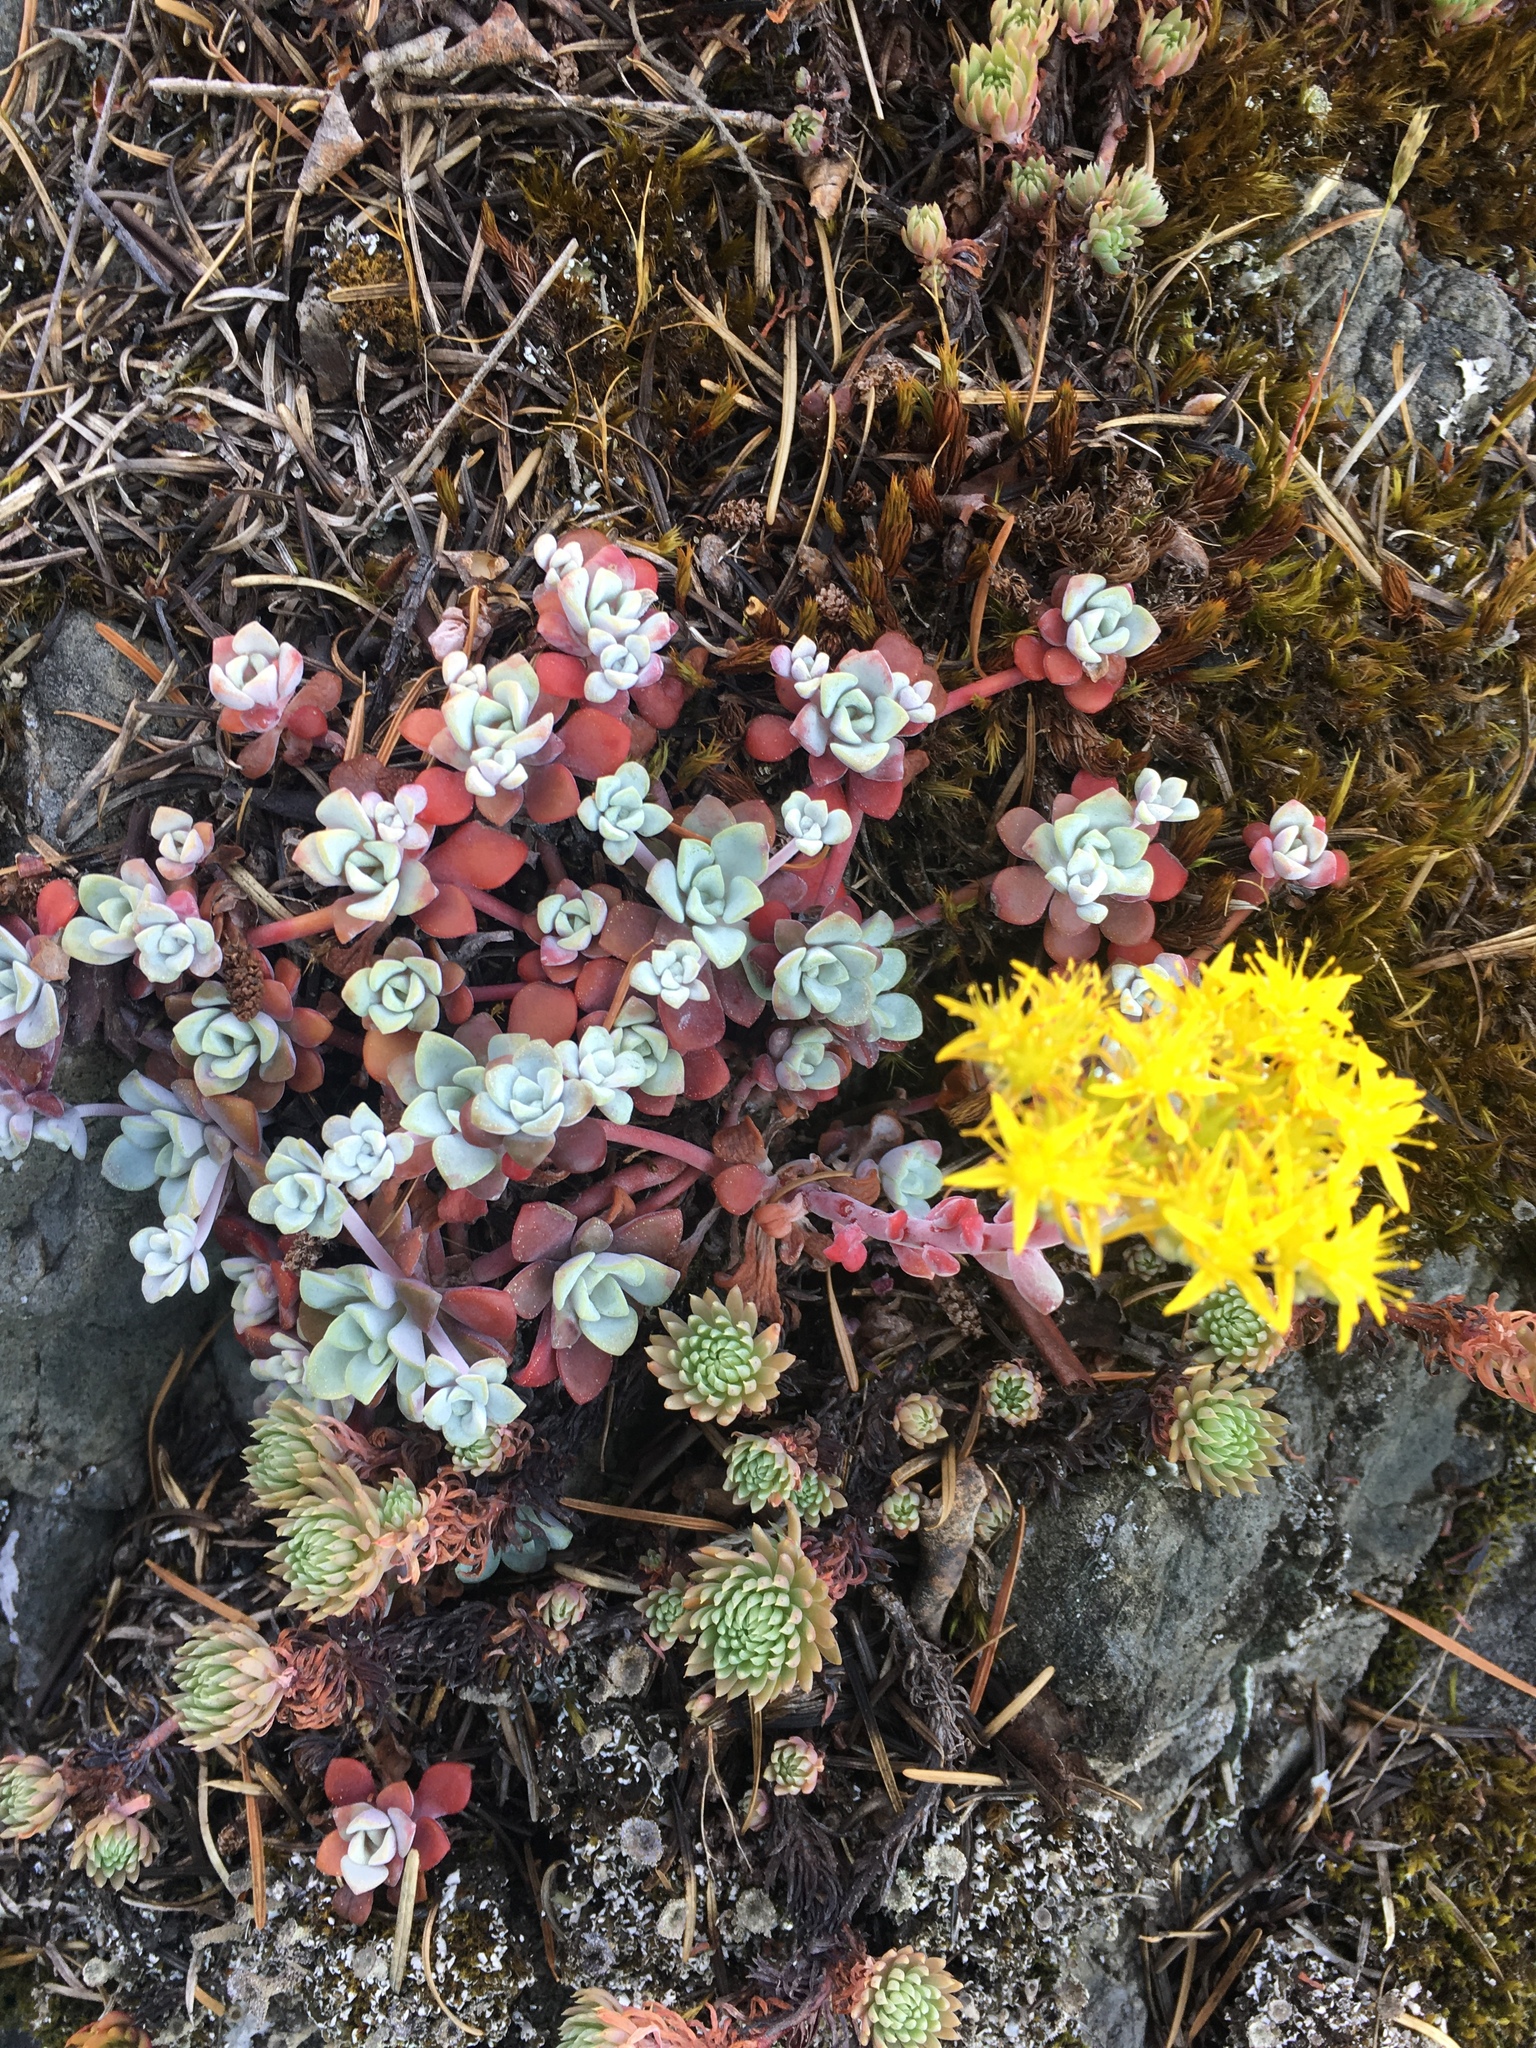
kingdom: Plantae
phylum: Tracheophyta
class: Magnoliopsida
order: Saxifragales
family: Crassulaceae
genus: Sedum
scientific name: Sedum spathulifolium
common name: Colorado stonecrop
